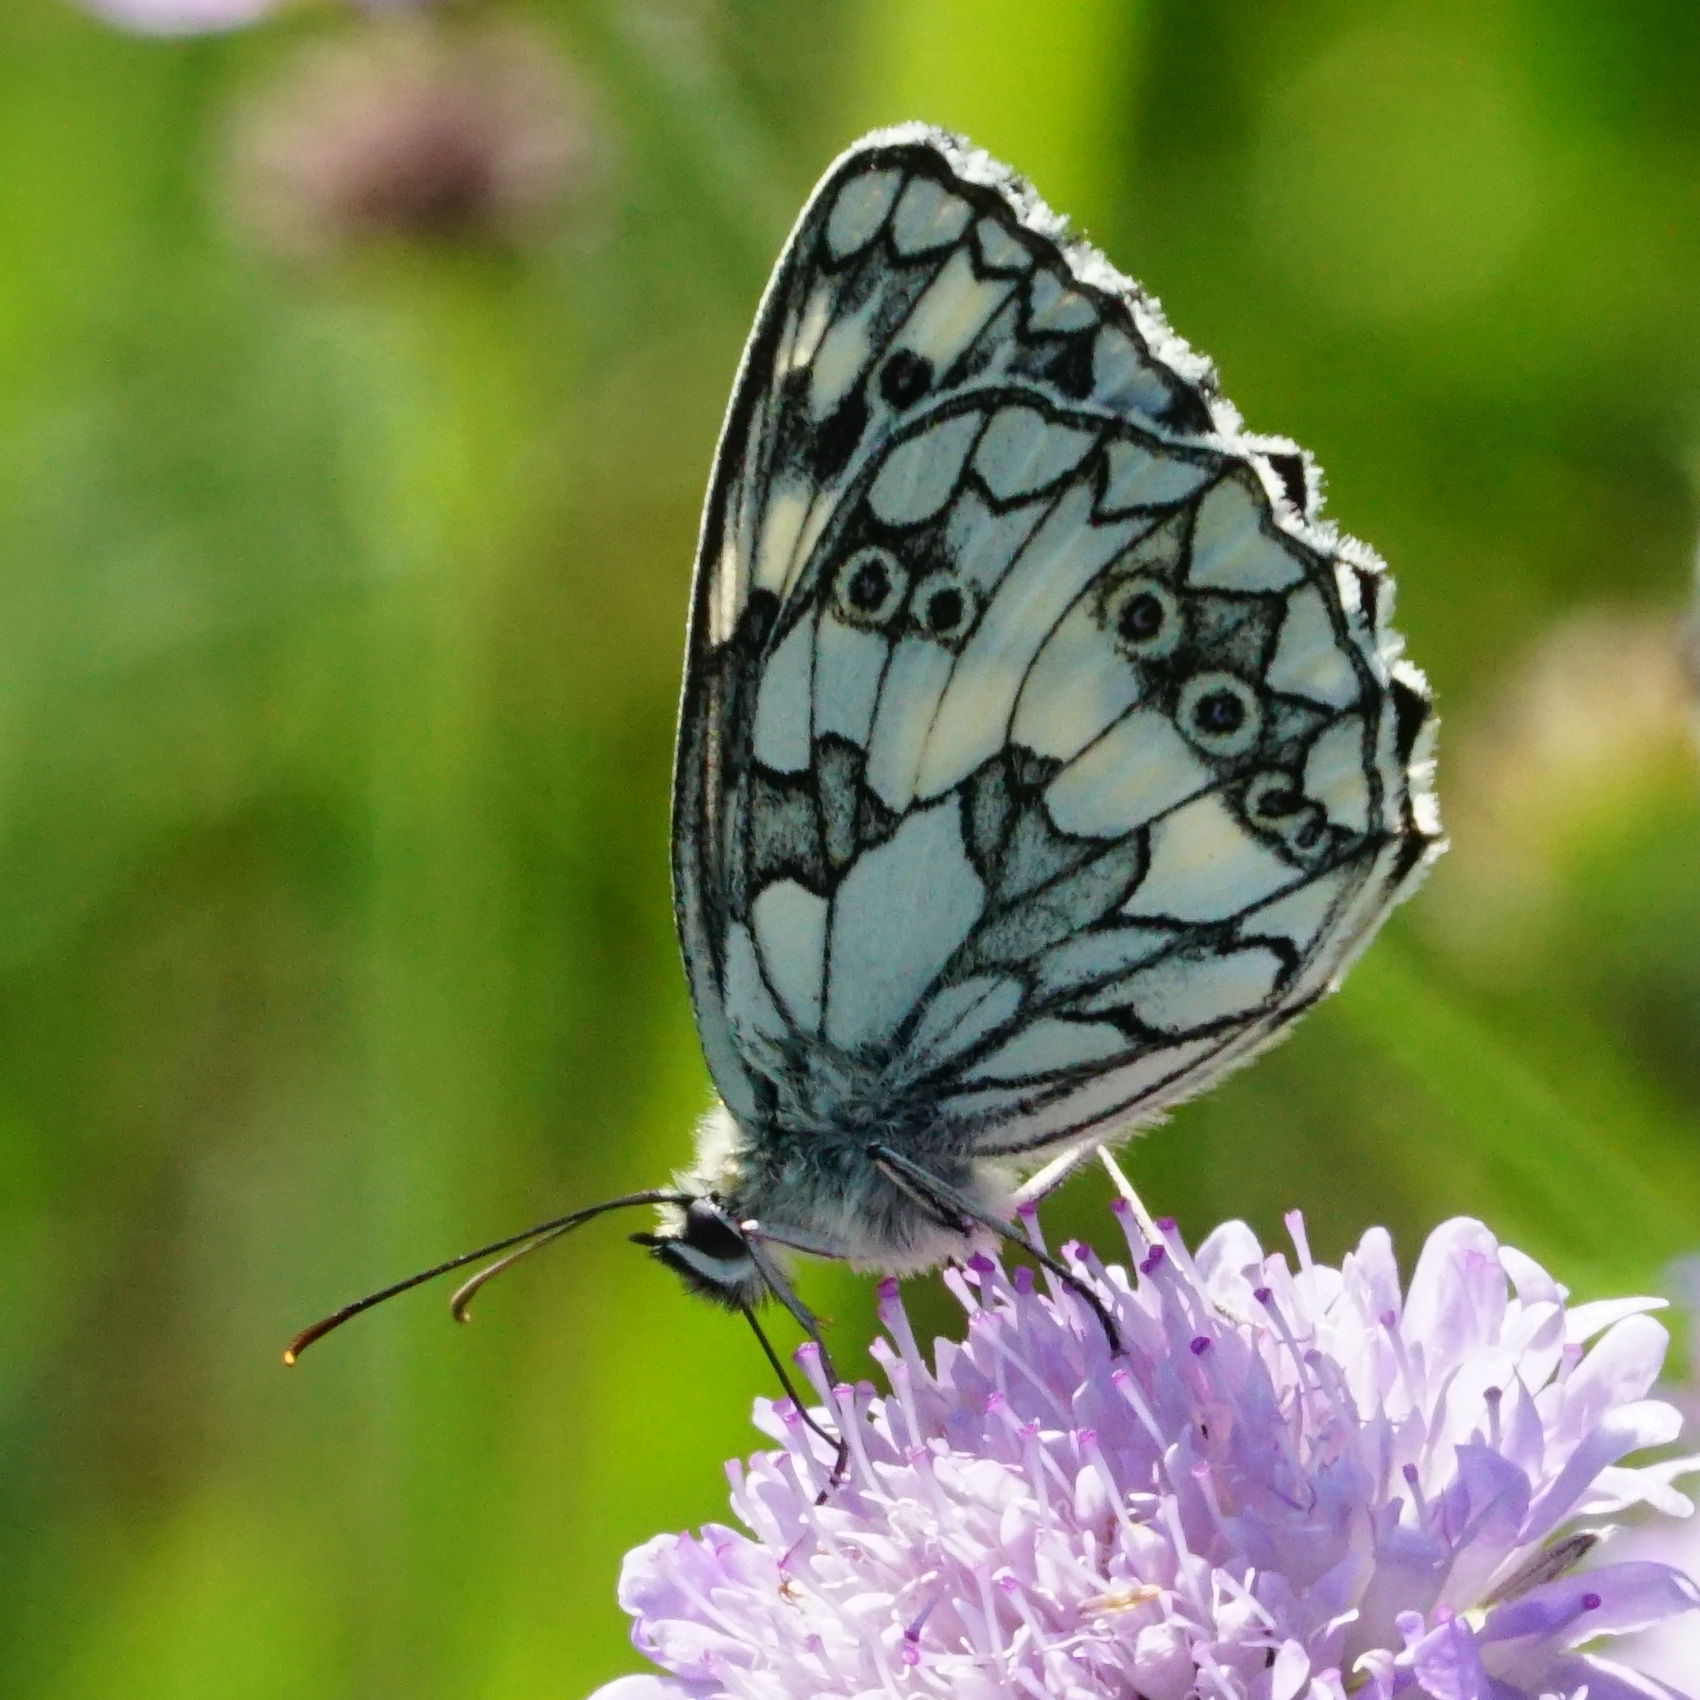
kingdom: Animalia
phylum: Arthropoda
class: Insecta
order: Lepidoptera
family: Nymphalidae
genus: Melanargia
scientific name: Melanargia galathea
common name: Marbled white
